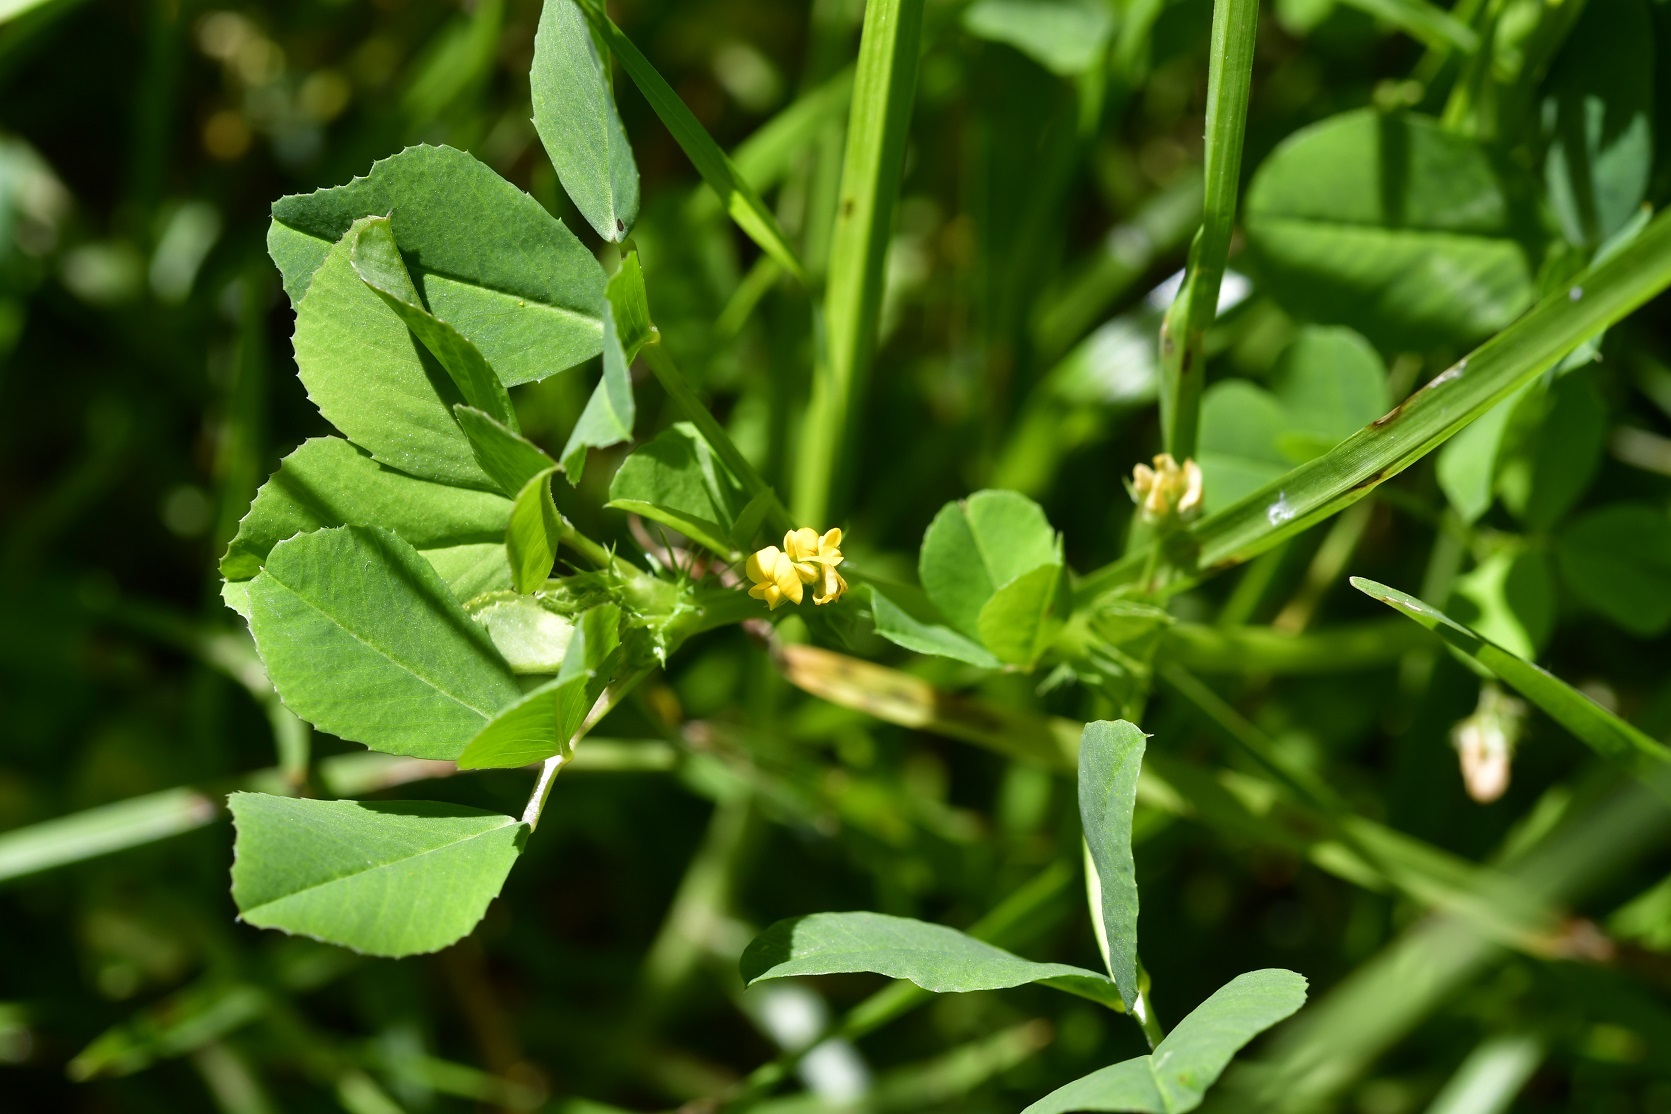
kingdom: Plantae
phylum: Tracheophyta
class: Magnoliopsida
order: Fabales
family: Fabaceae
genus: Medicago
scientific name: Medicago polymorpha
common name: Burclover
